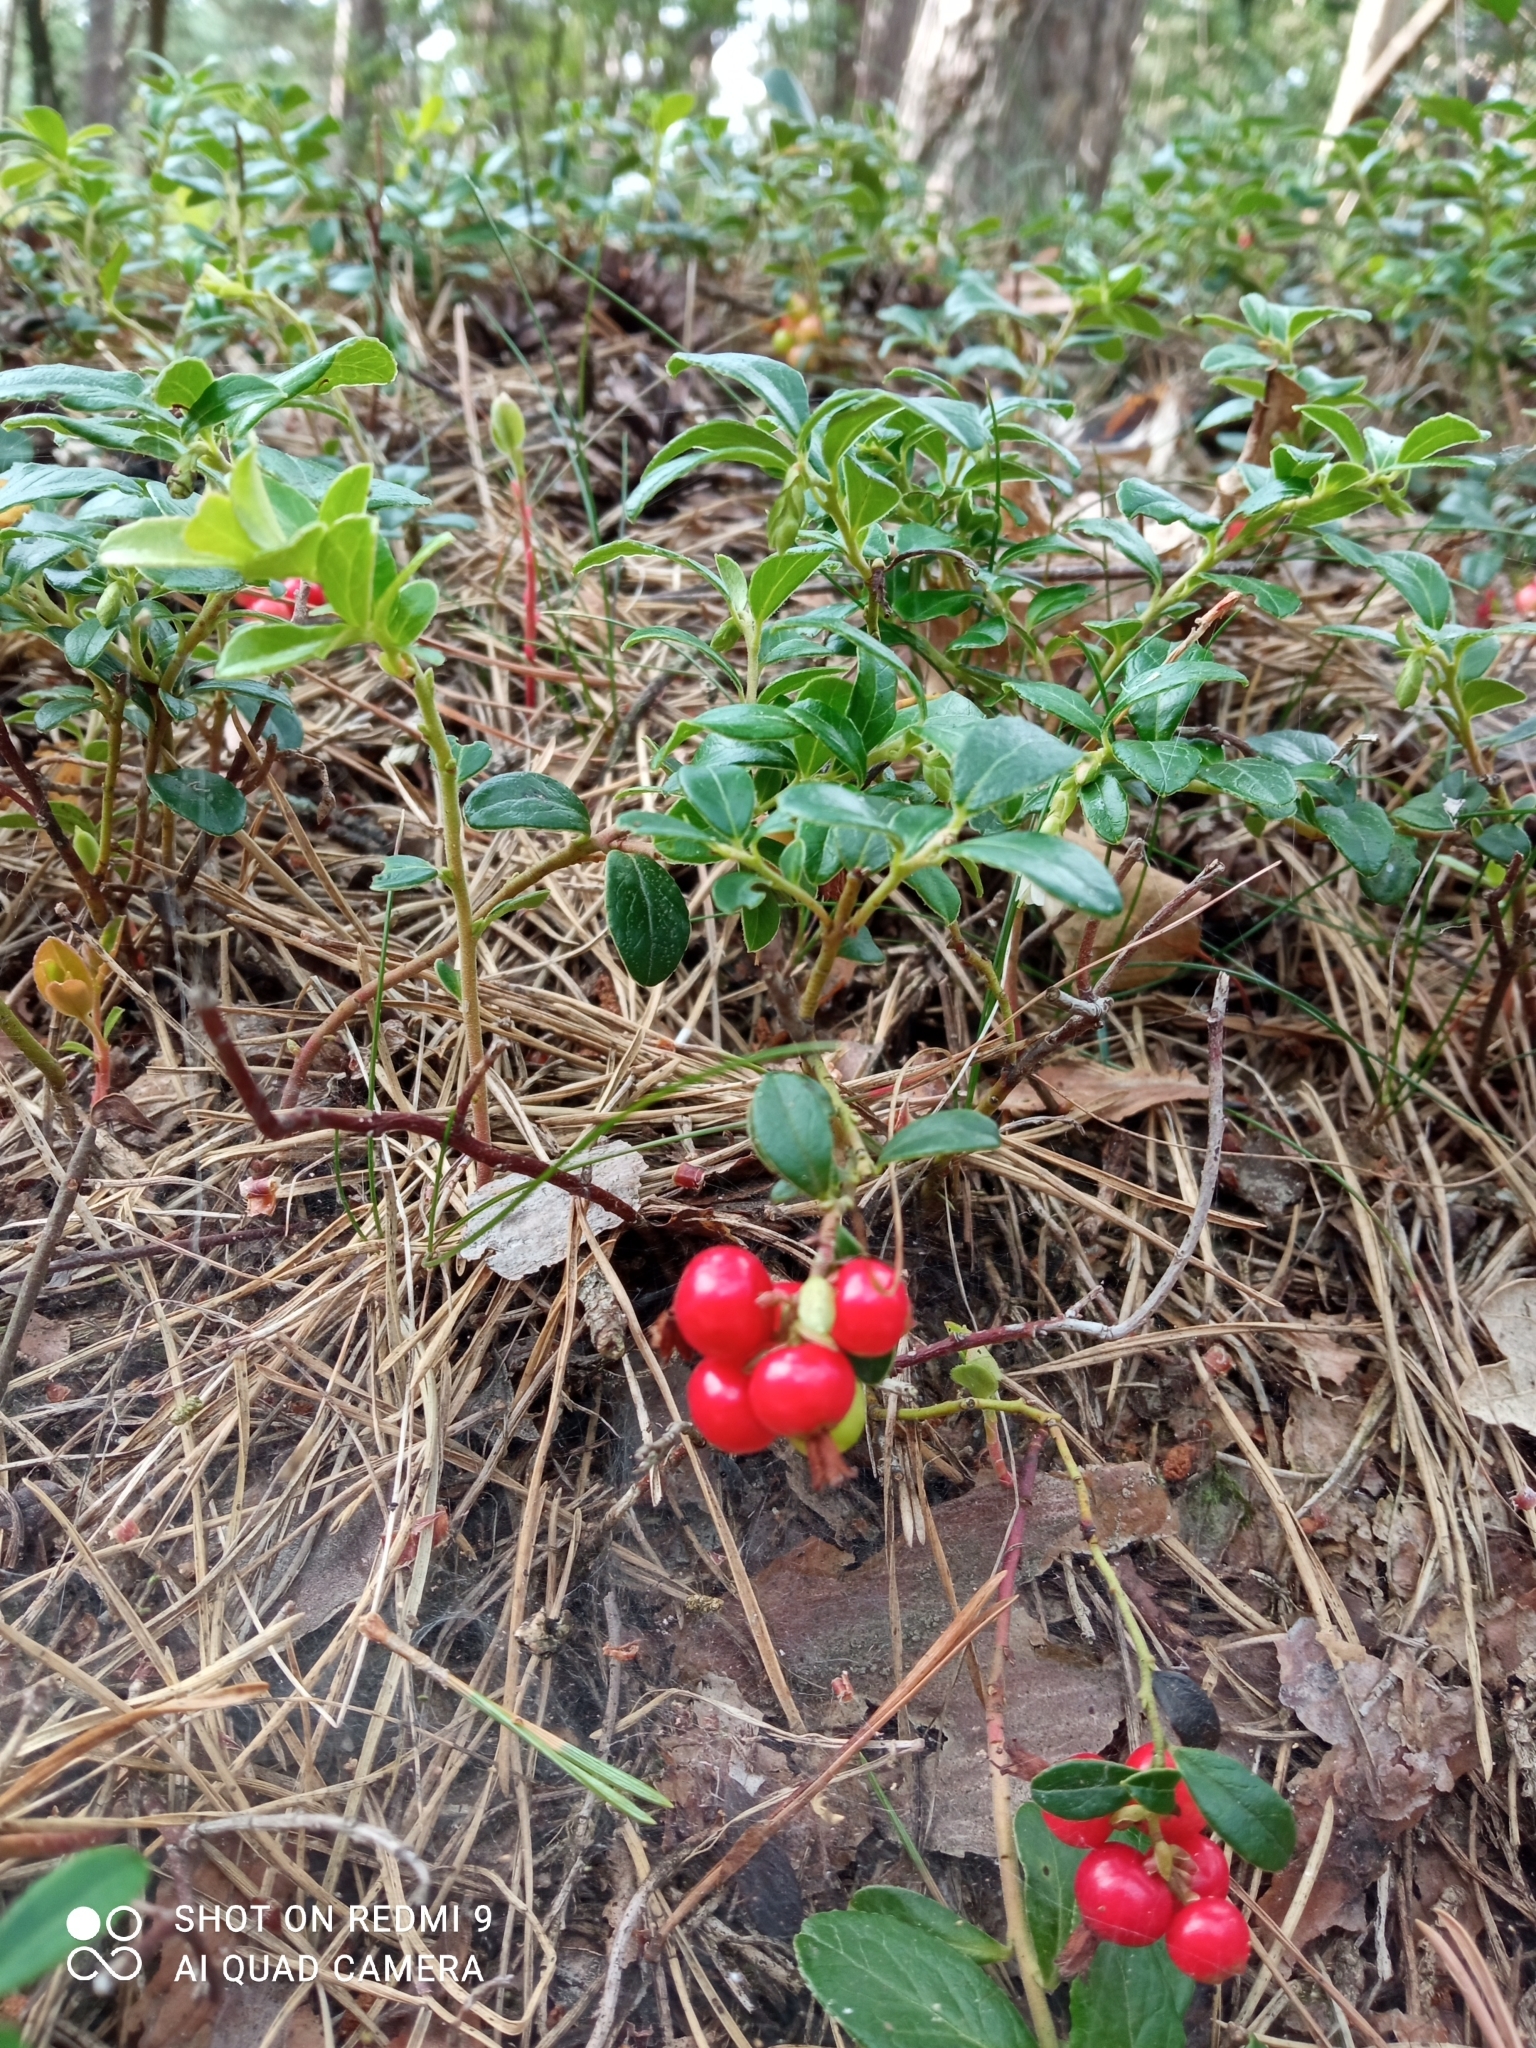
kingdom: Plantae
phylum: Tracheophyta
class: Magnoliopsida
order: Ericales
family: Ericaceae
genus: Vaccinium
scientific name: Vaccinium vitis-idaea
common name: Cowberry
